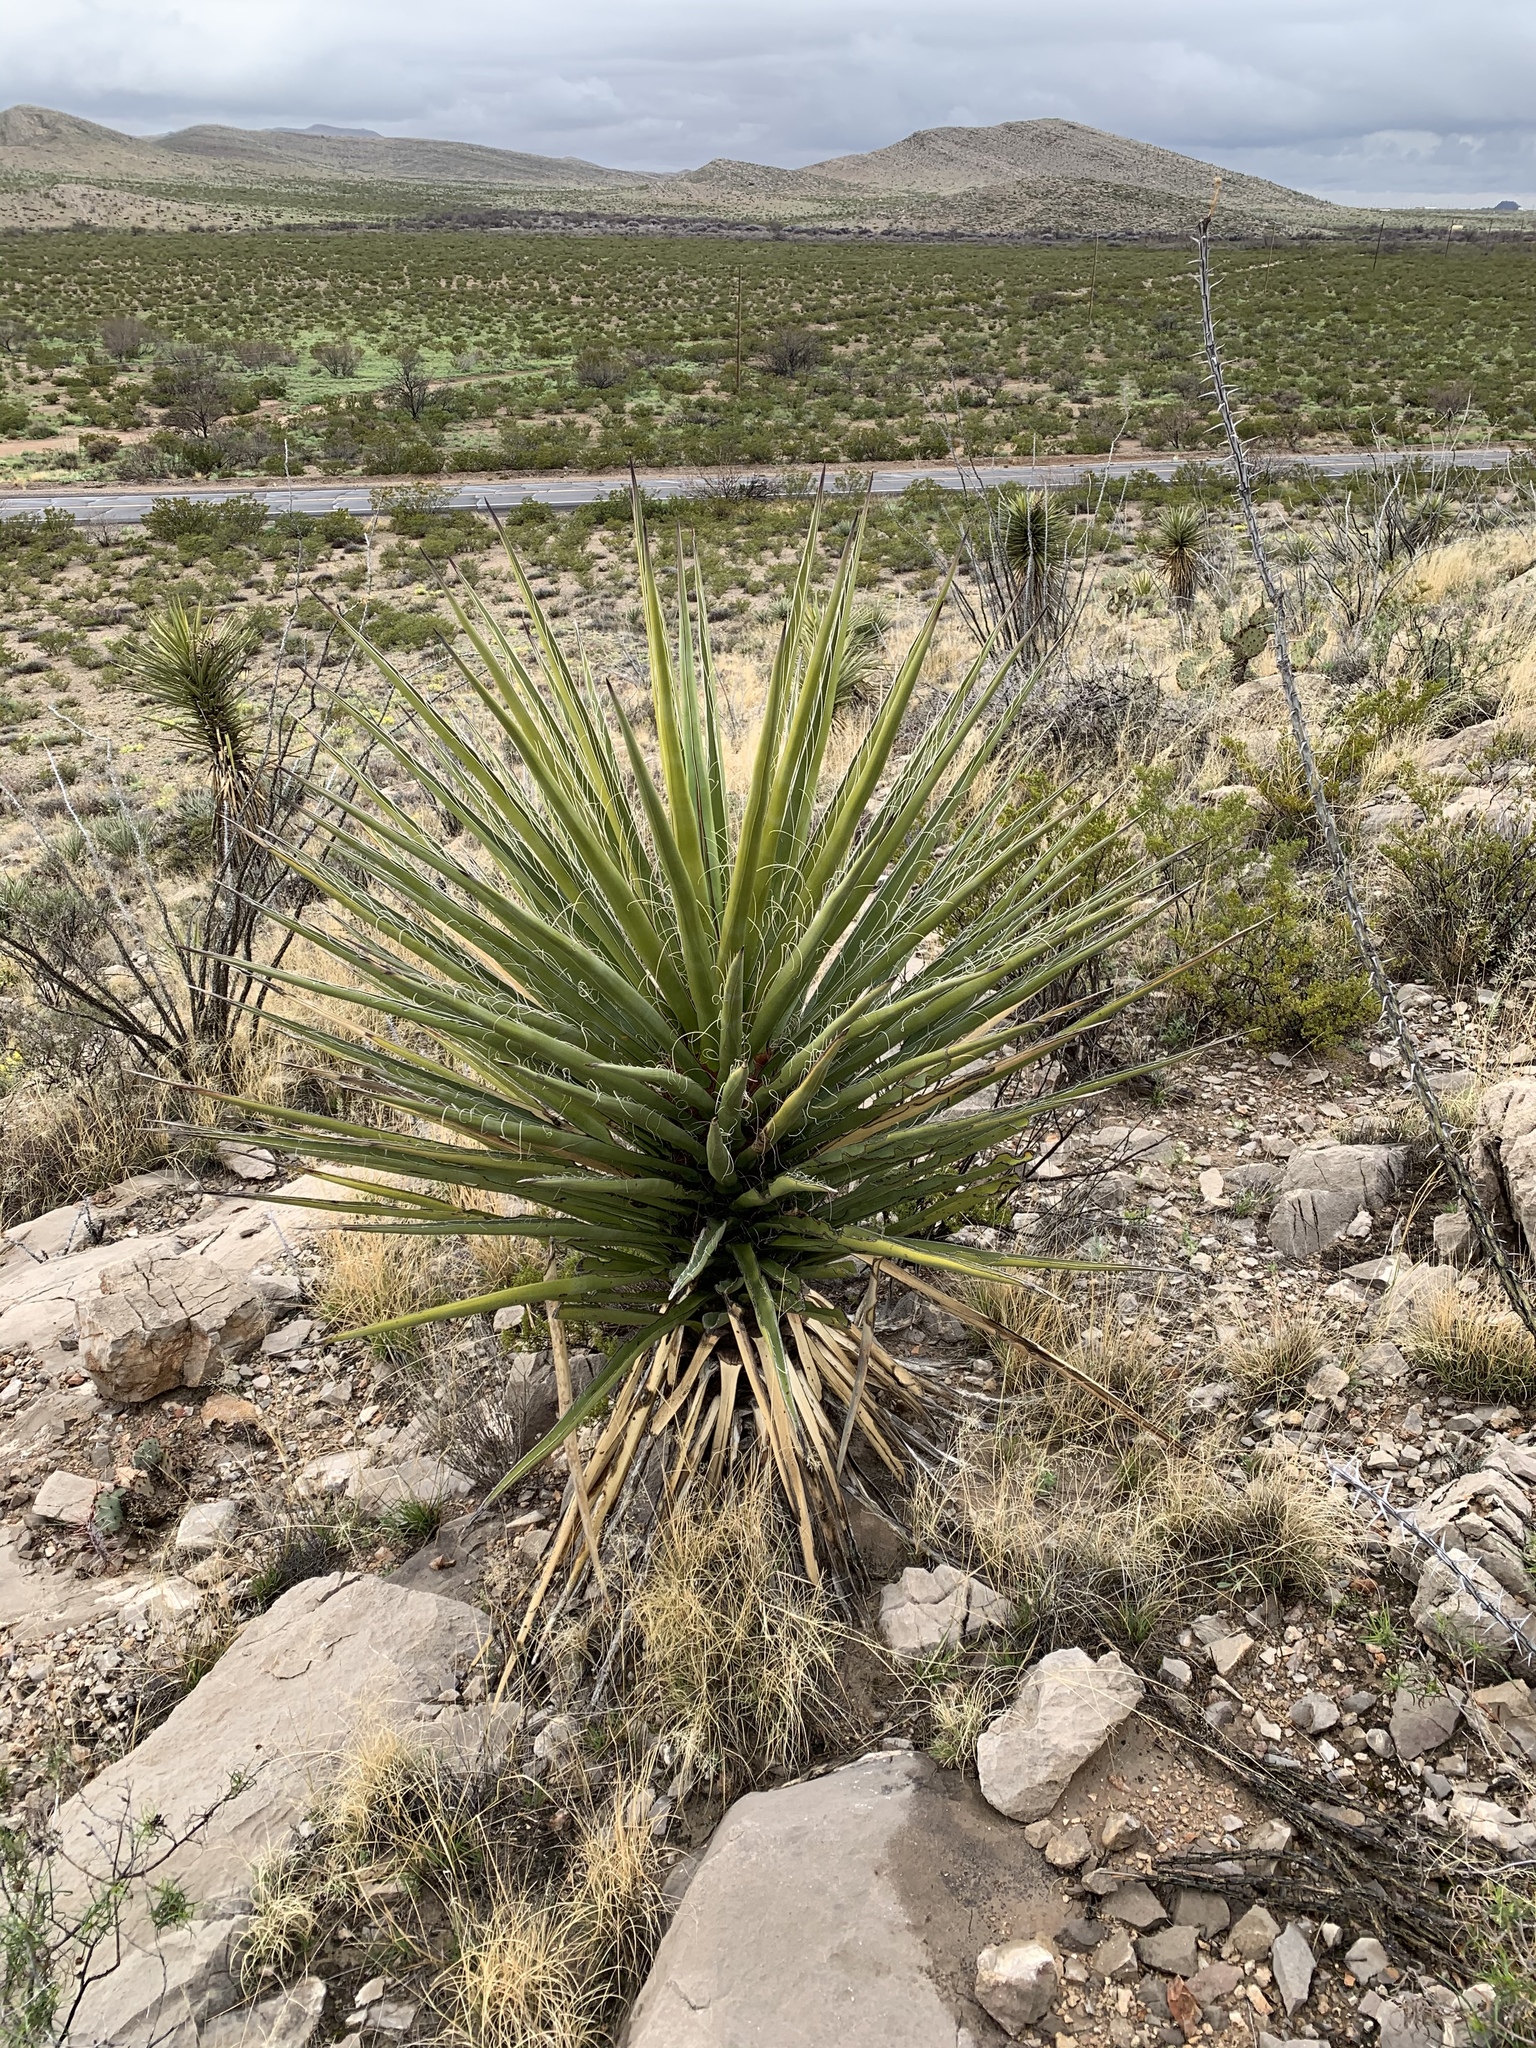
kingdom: Plantae
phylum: Tracheophyta
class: Liliopsida
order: Asparagales
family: Asparagaceae
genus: Yucca
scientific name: Yucca treculiana
